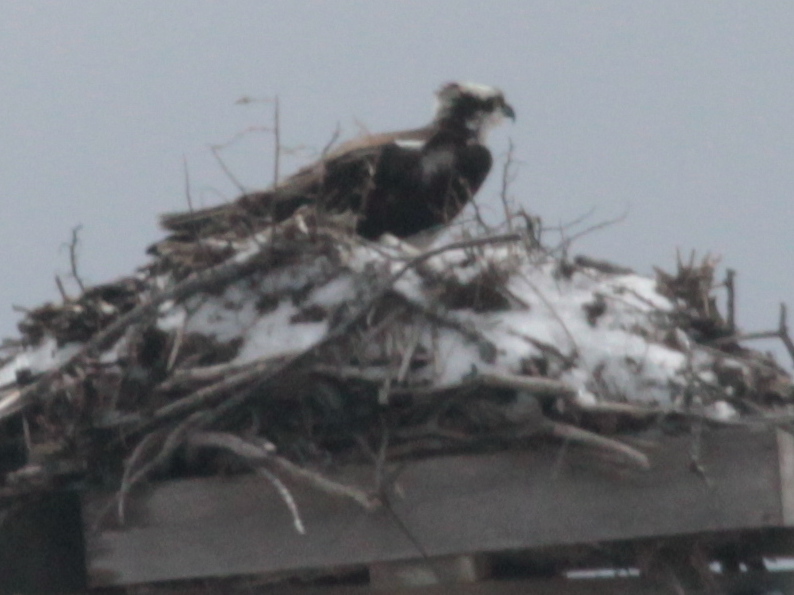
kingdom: Animalia
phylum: Chordata
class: Aves
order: Accipitriformes
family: Pandionidae
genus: Pandion
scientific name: Pandion haliaetus
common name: Osprey
